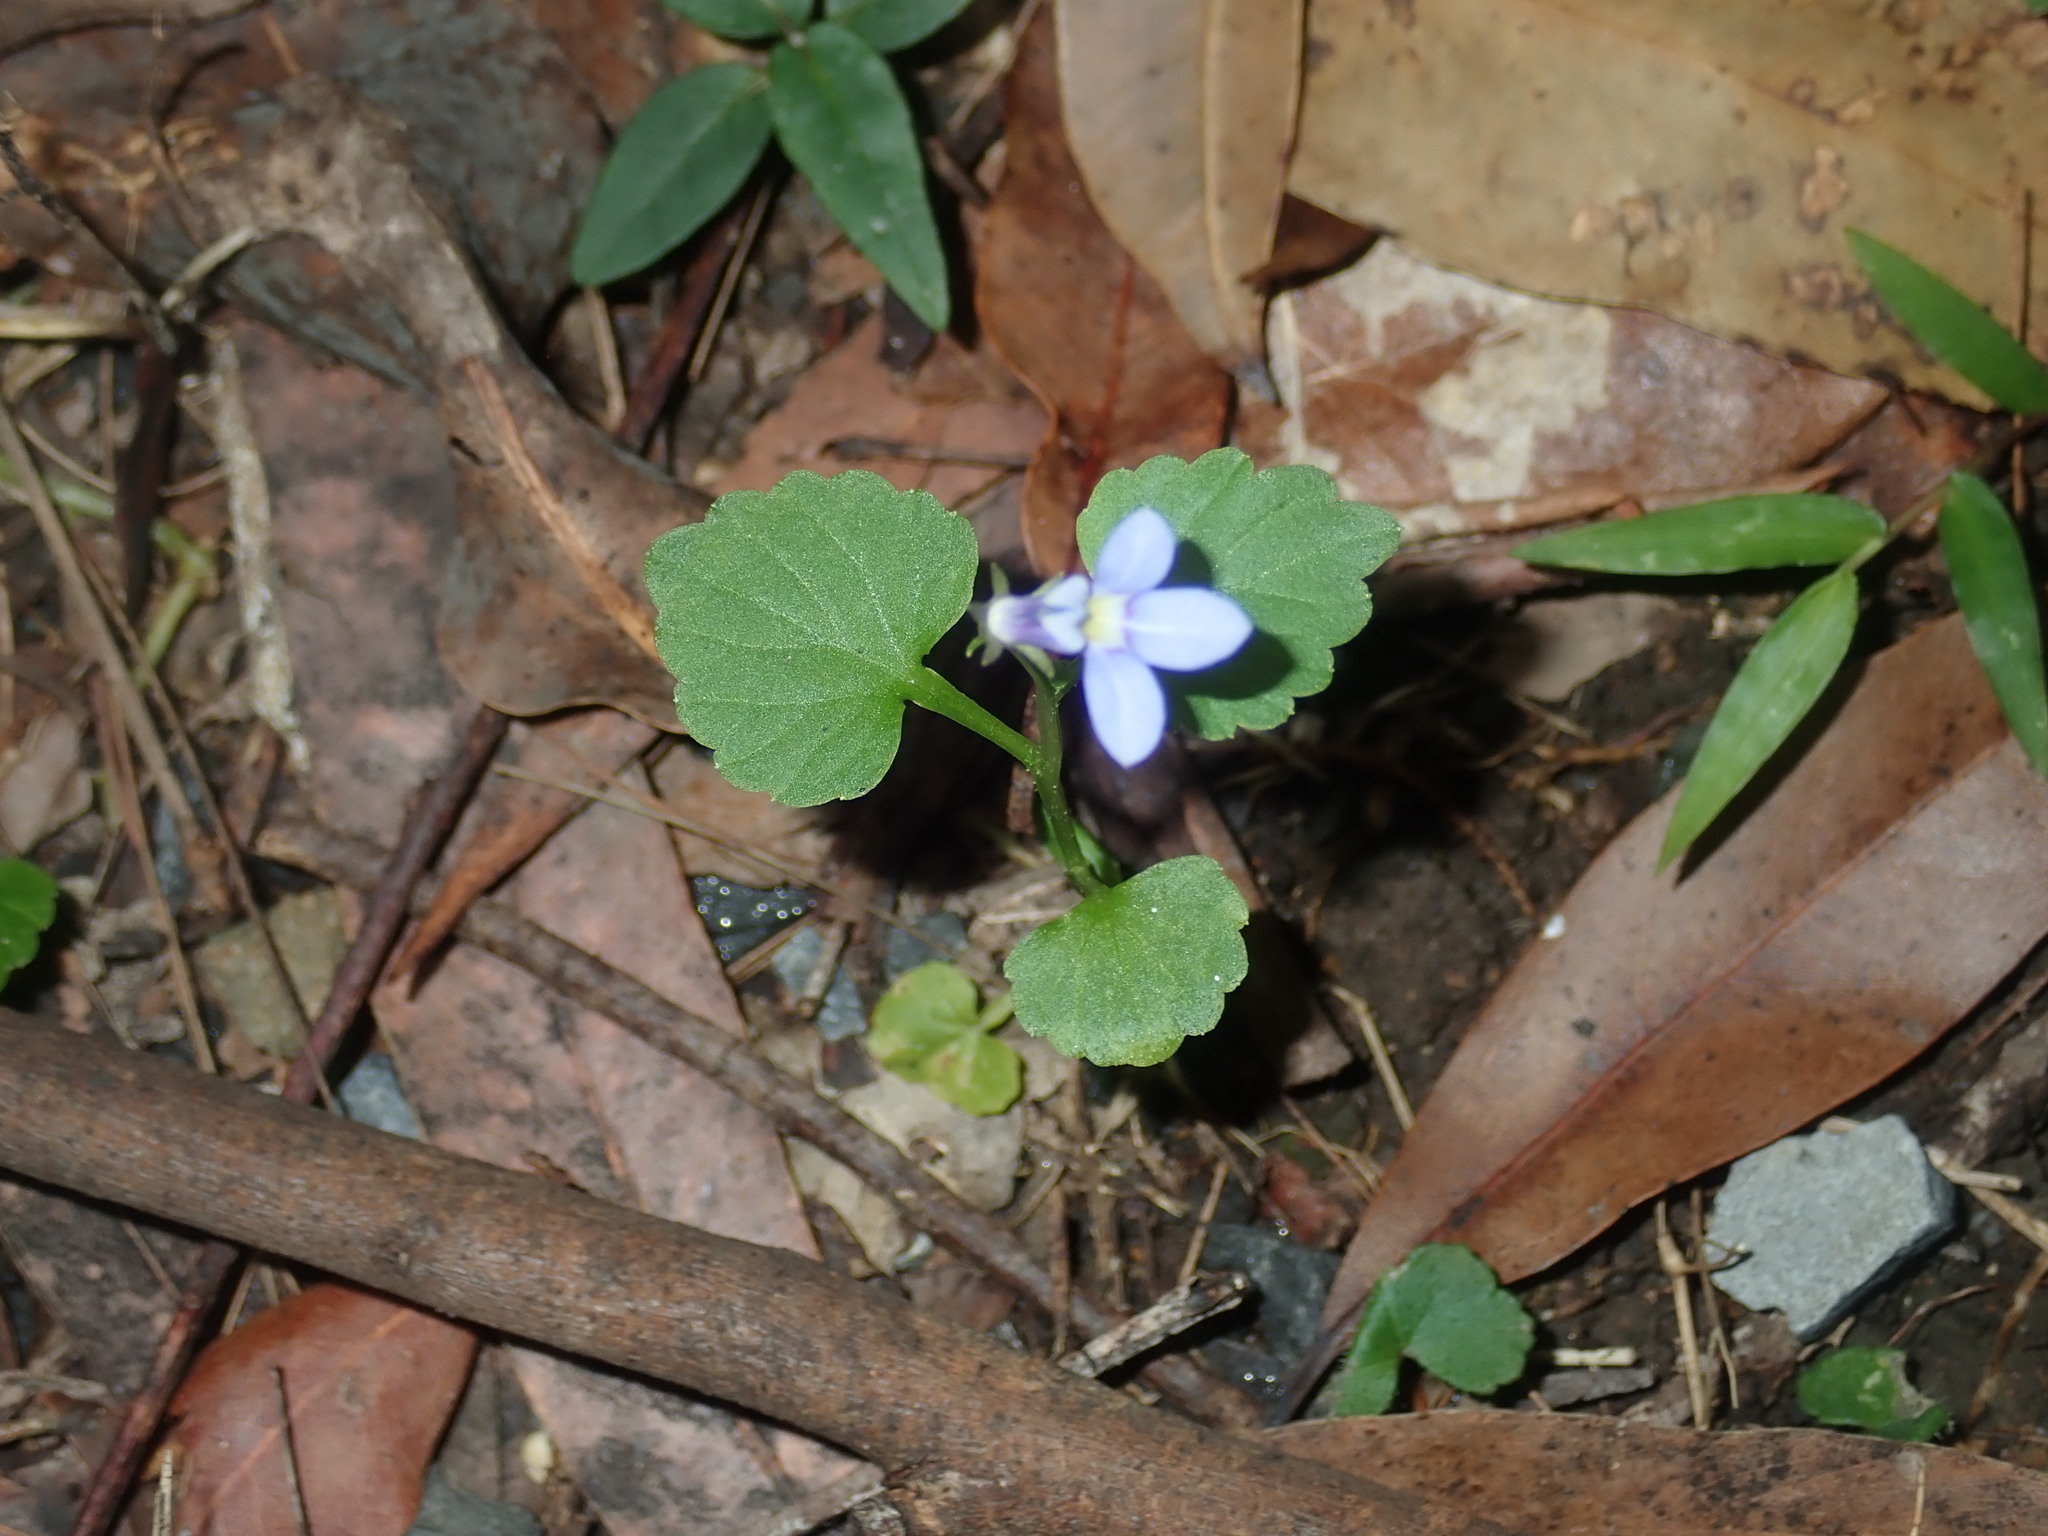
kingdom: Plantae
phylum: Tracheophyta
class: Magnoliopsida
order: Asterales
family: Campanulaceae
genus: Lobelia
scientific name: Lobelia trigonocaulis
